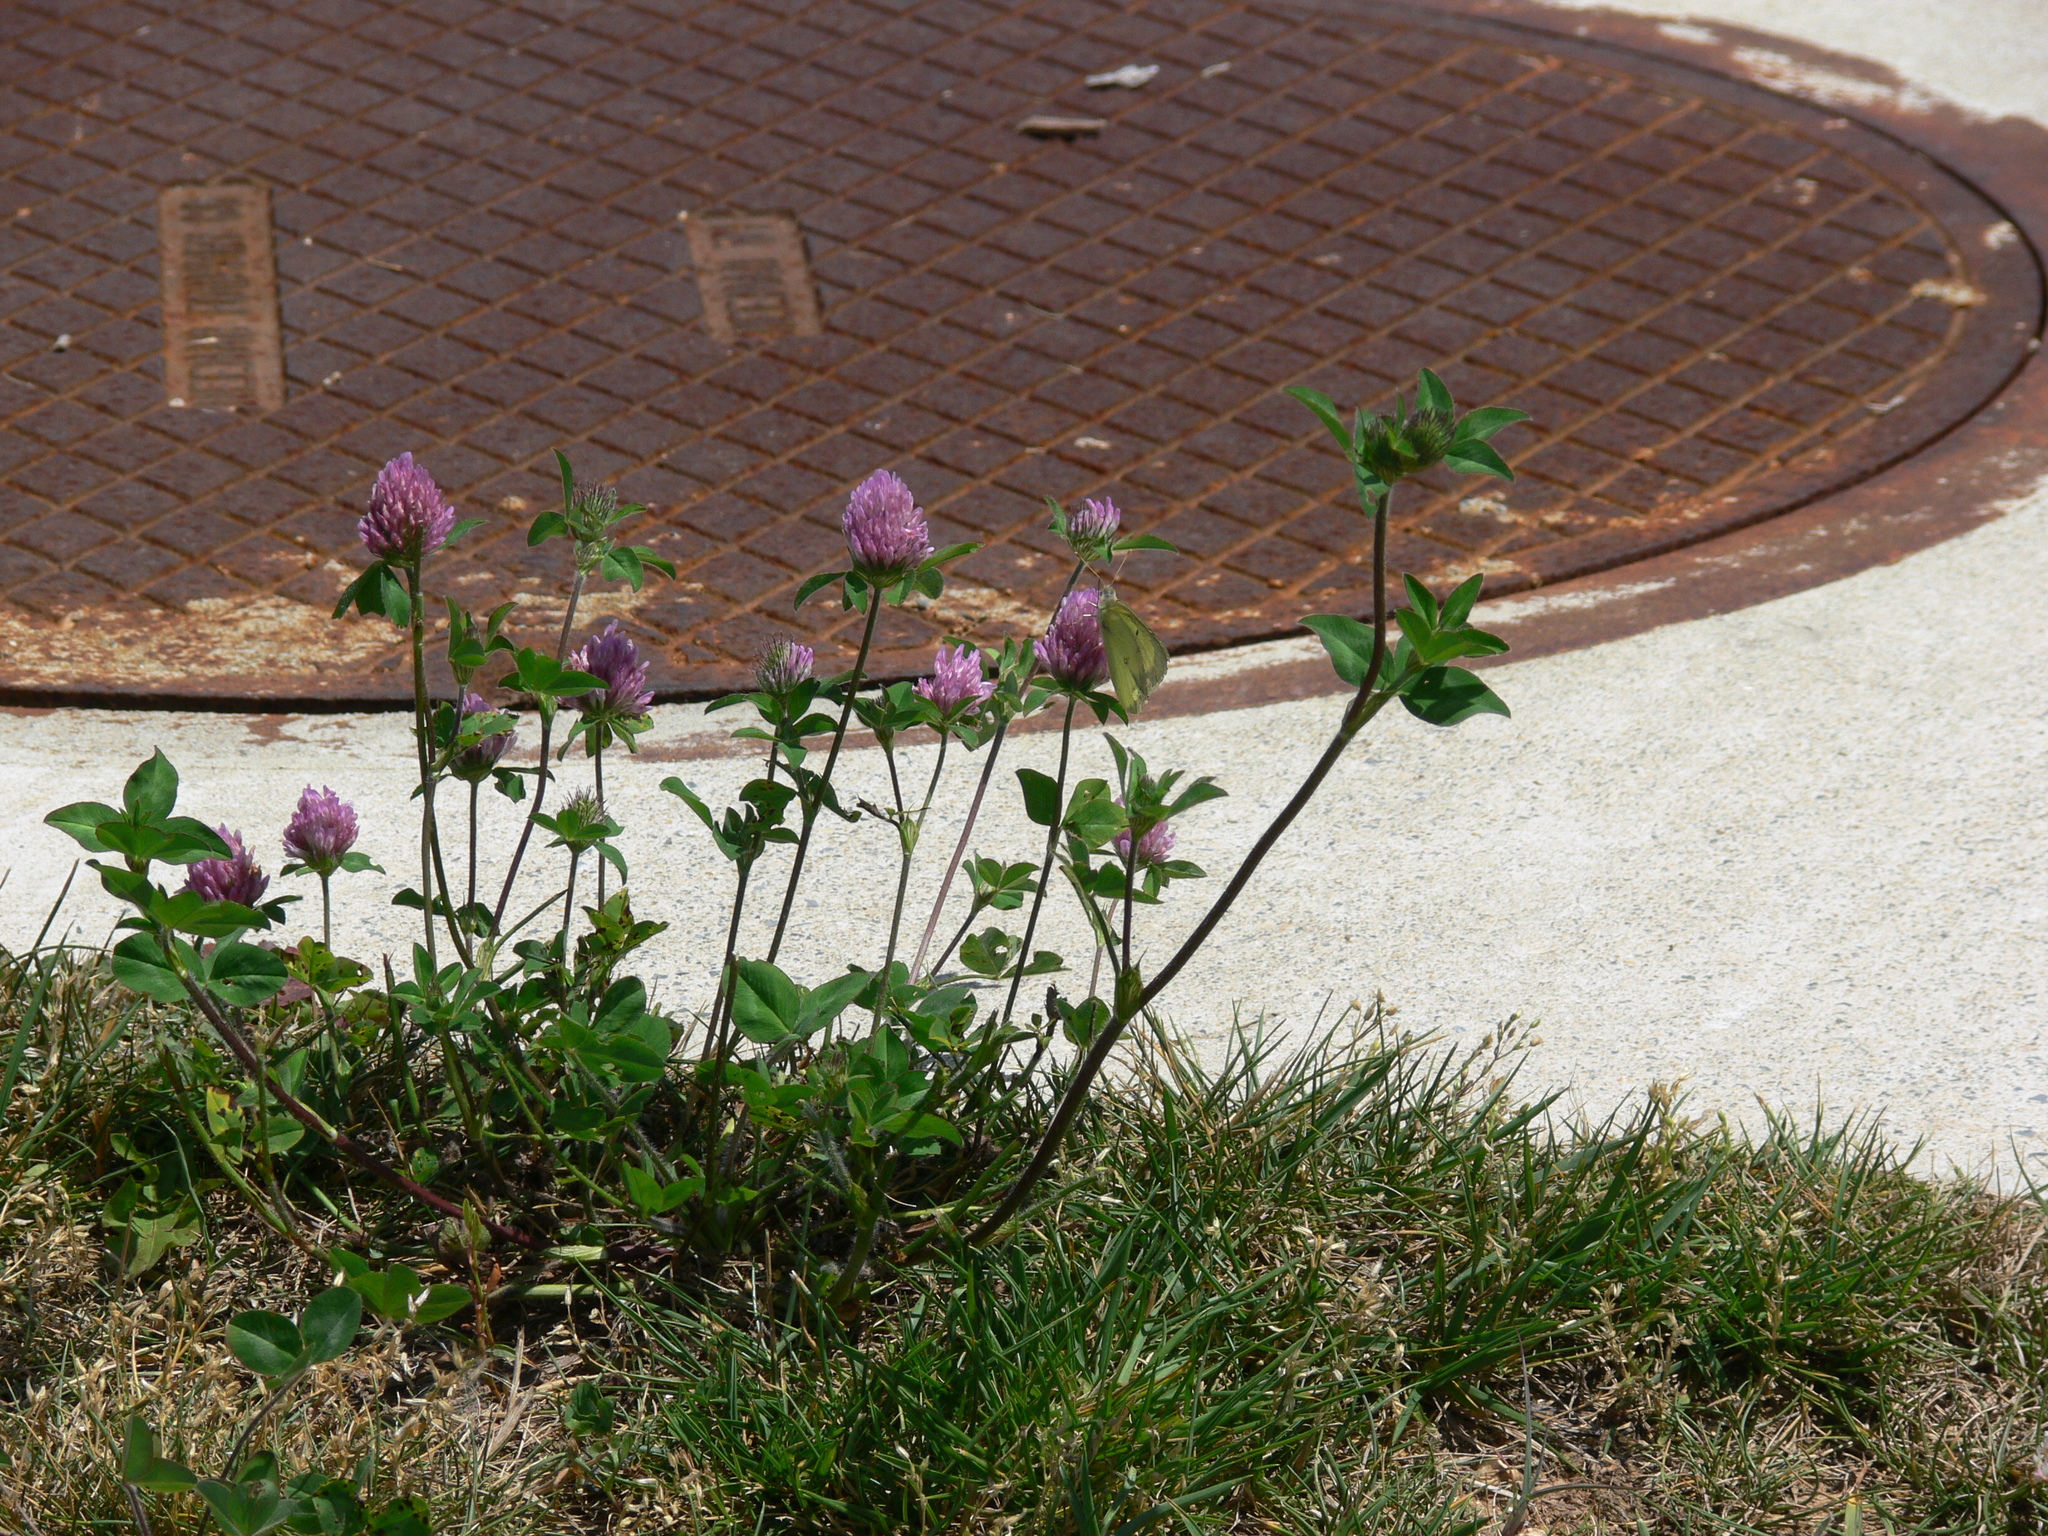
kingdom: Plantae
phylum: Tracheophyta
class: Magnoliopsida
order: Fabales
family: Fabaceae
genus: Trifolium
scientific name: Trifolium pratense
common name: Red clover
